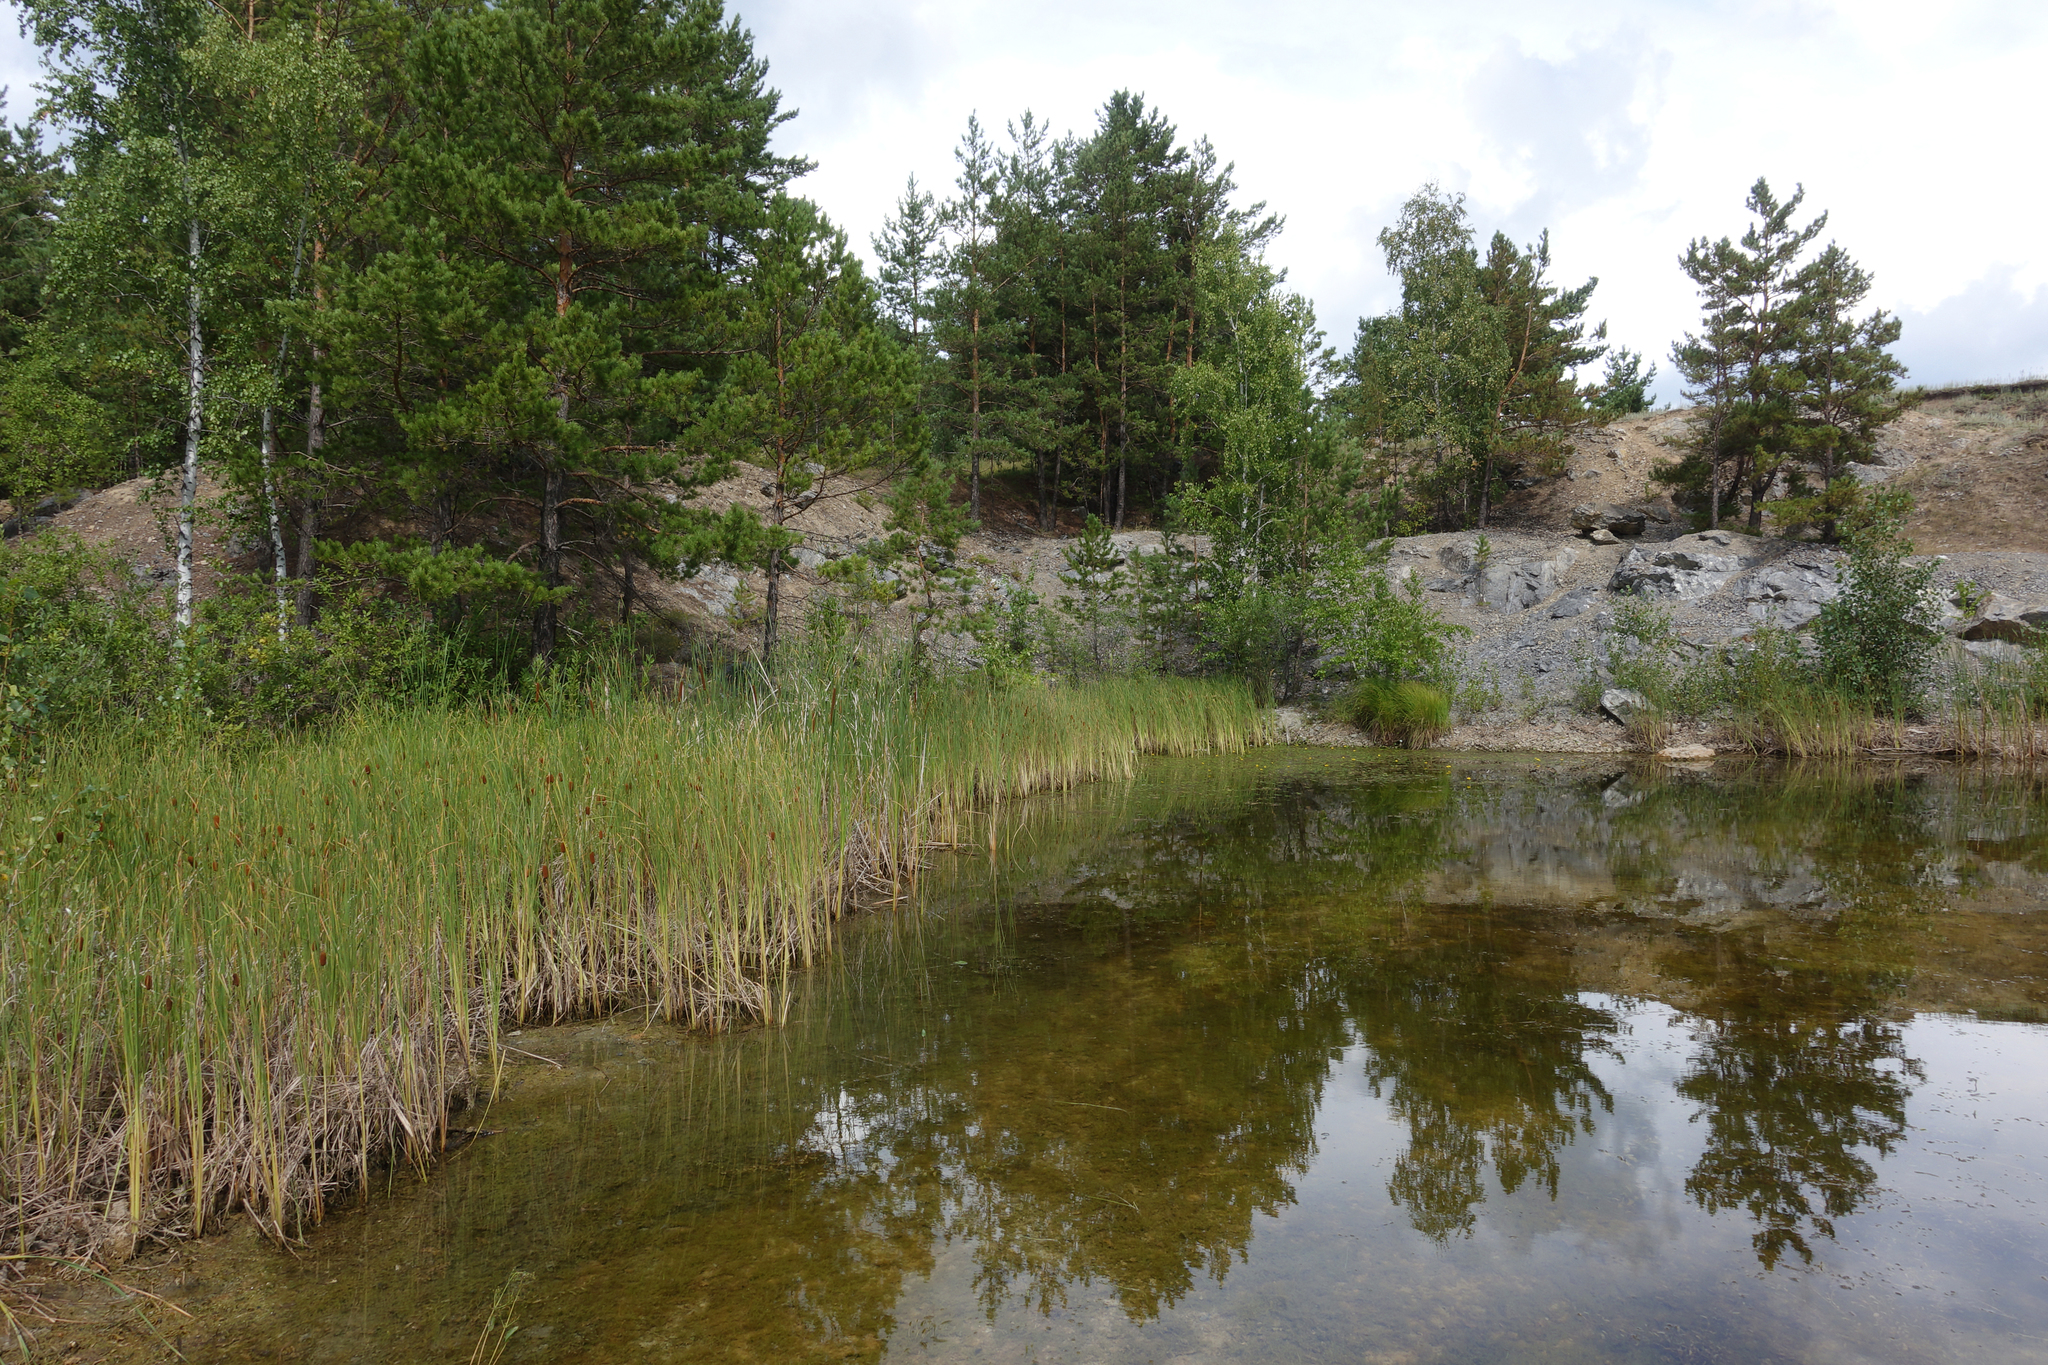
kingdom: Plantae
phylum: Tracheophyta
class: Pinopsida
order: Pinales
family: Pinaceae
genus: Pinus
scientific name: Pinus sylvestris
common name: Scots pine
